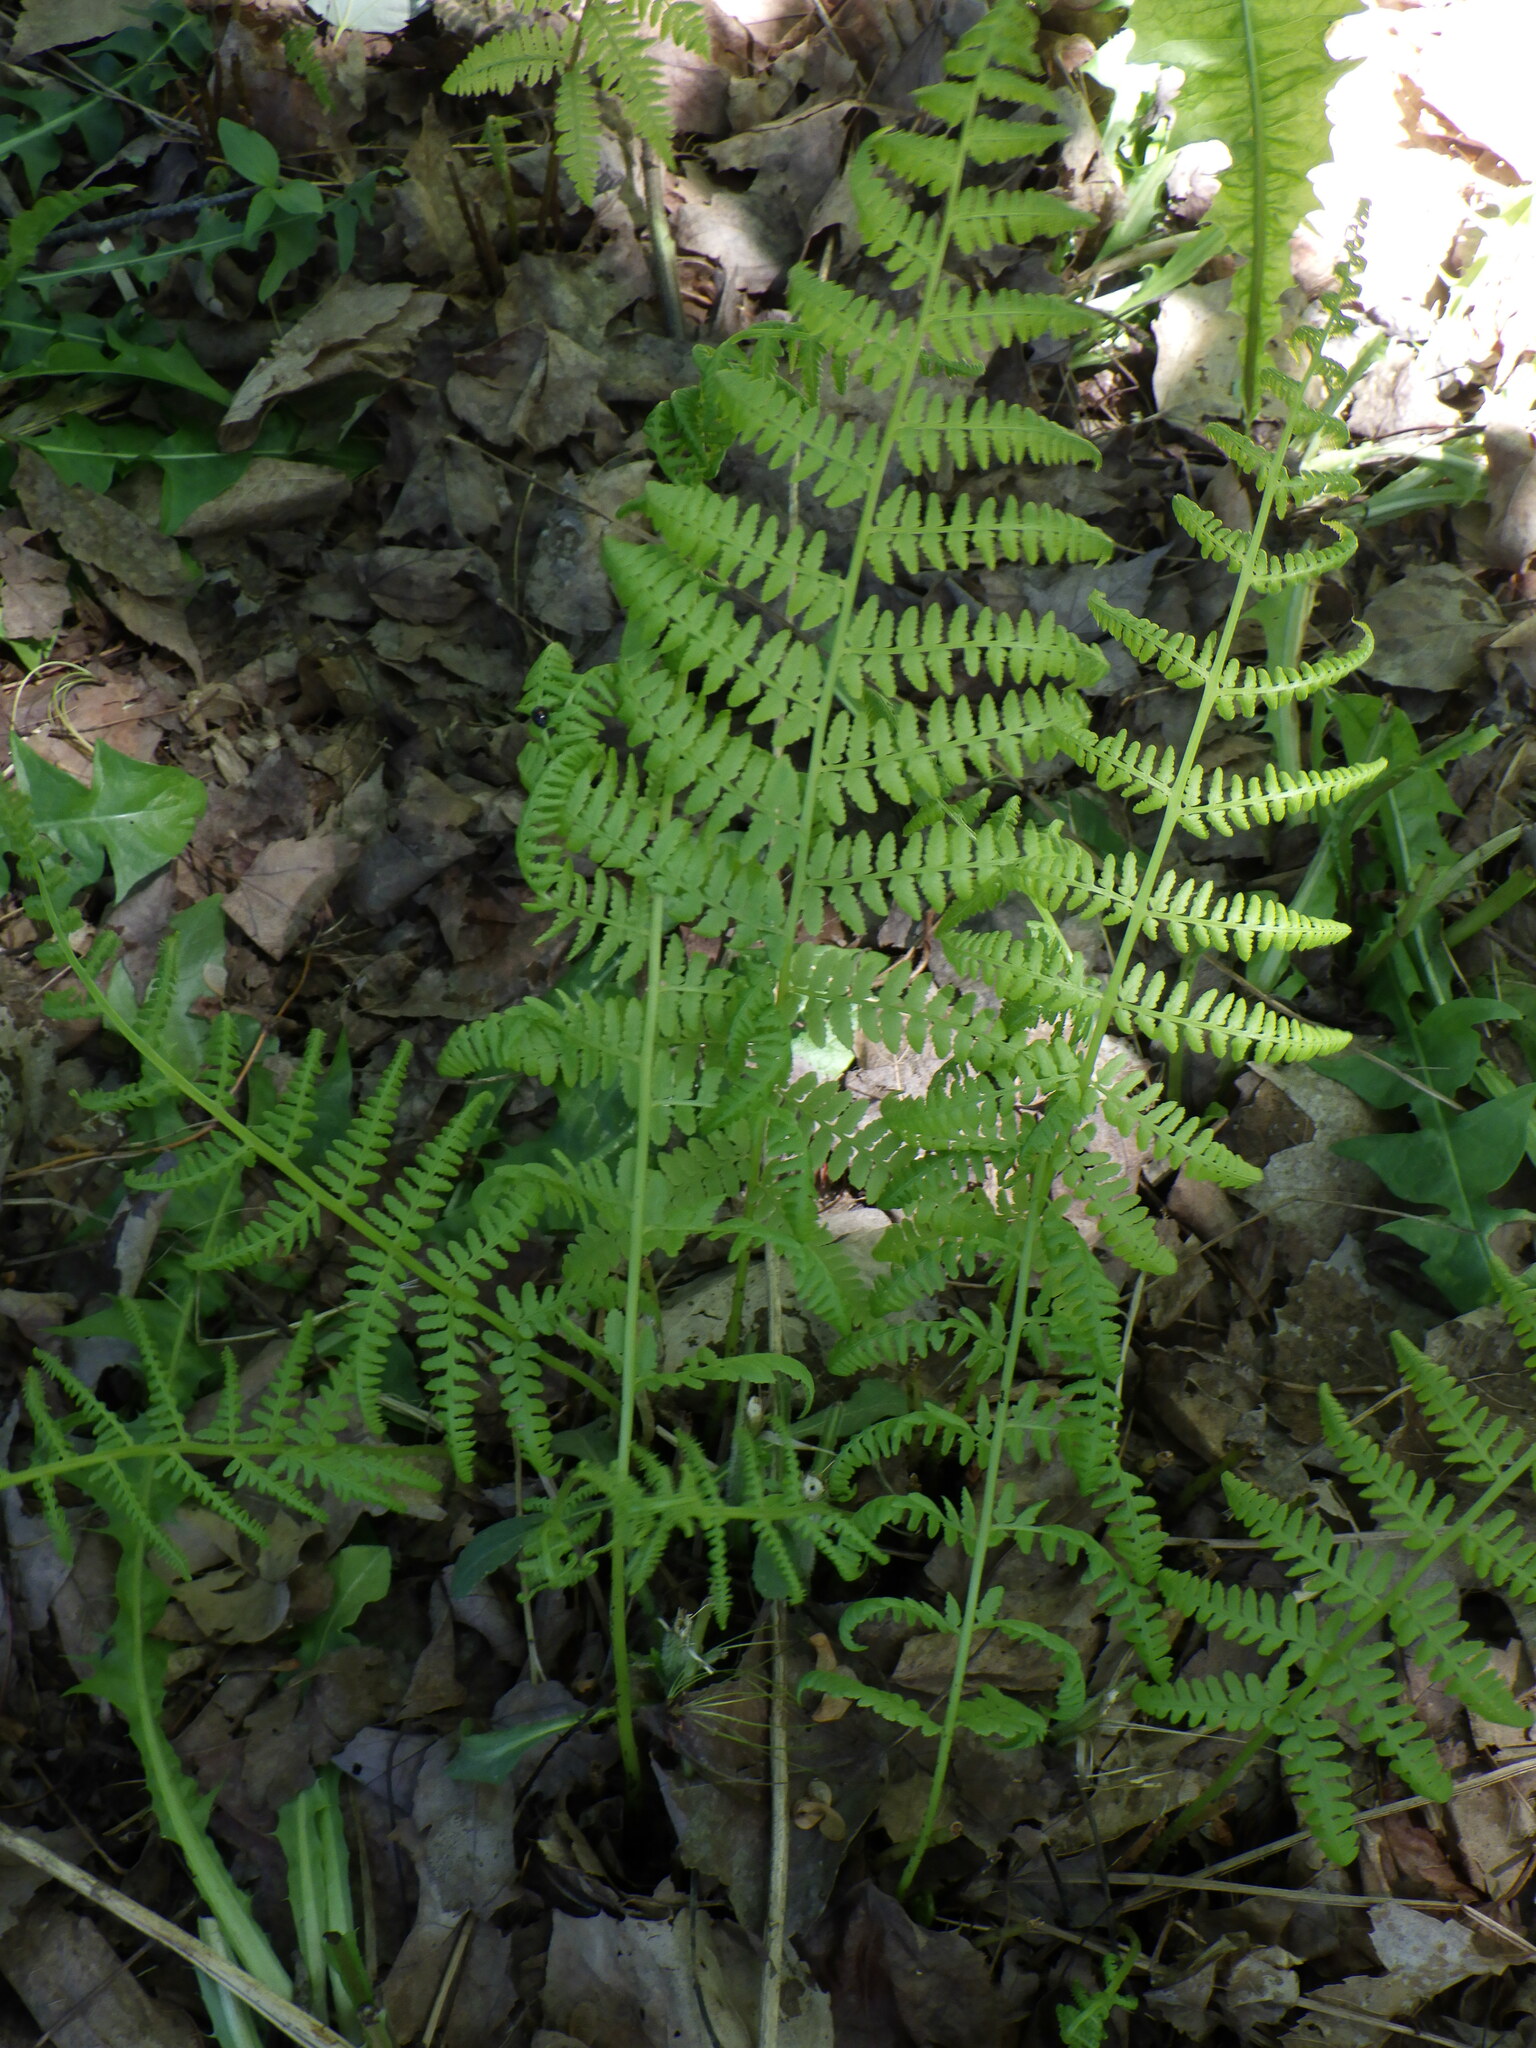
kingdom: Plantae
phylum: Tracheophyta
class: Polypodiopsida
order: Polypodiales
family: Athyriaceae
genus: Athyrium
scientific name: Athyrium angustum
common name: Northern lady fern
